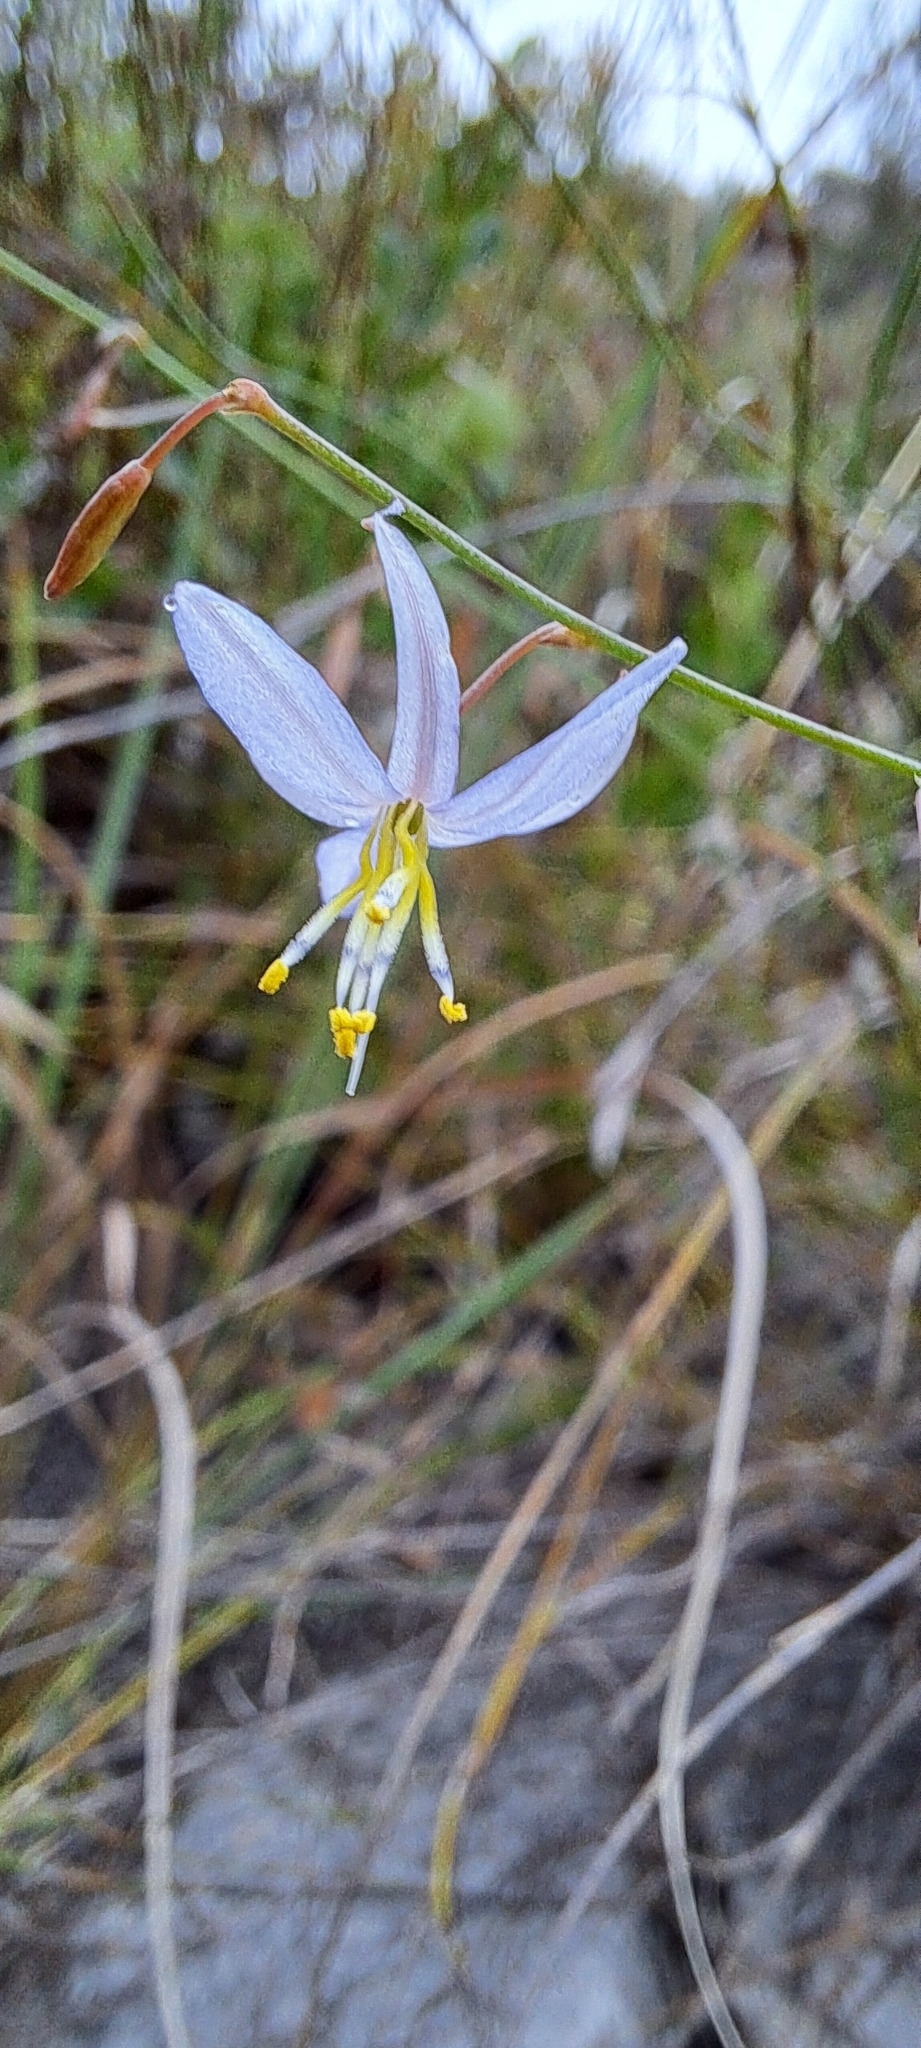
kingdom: Plantae
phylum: Tracheophyta
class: Liliopsida
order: Asparagales
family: Asphodelaceae
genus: Caesia
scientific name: Caesia contorta
